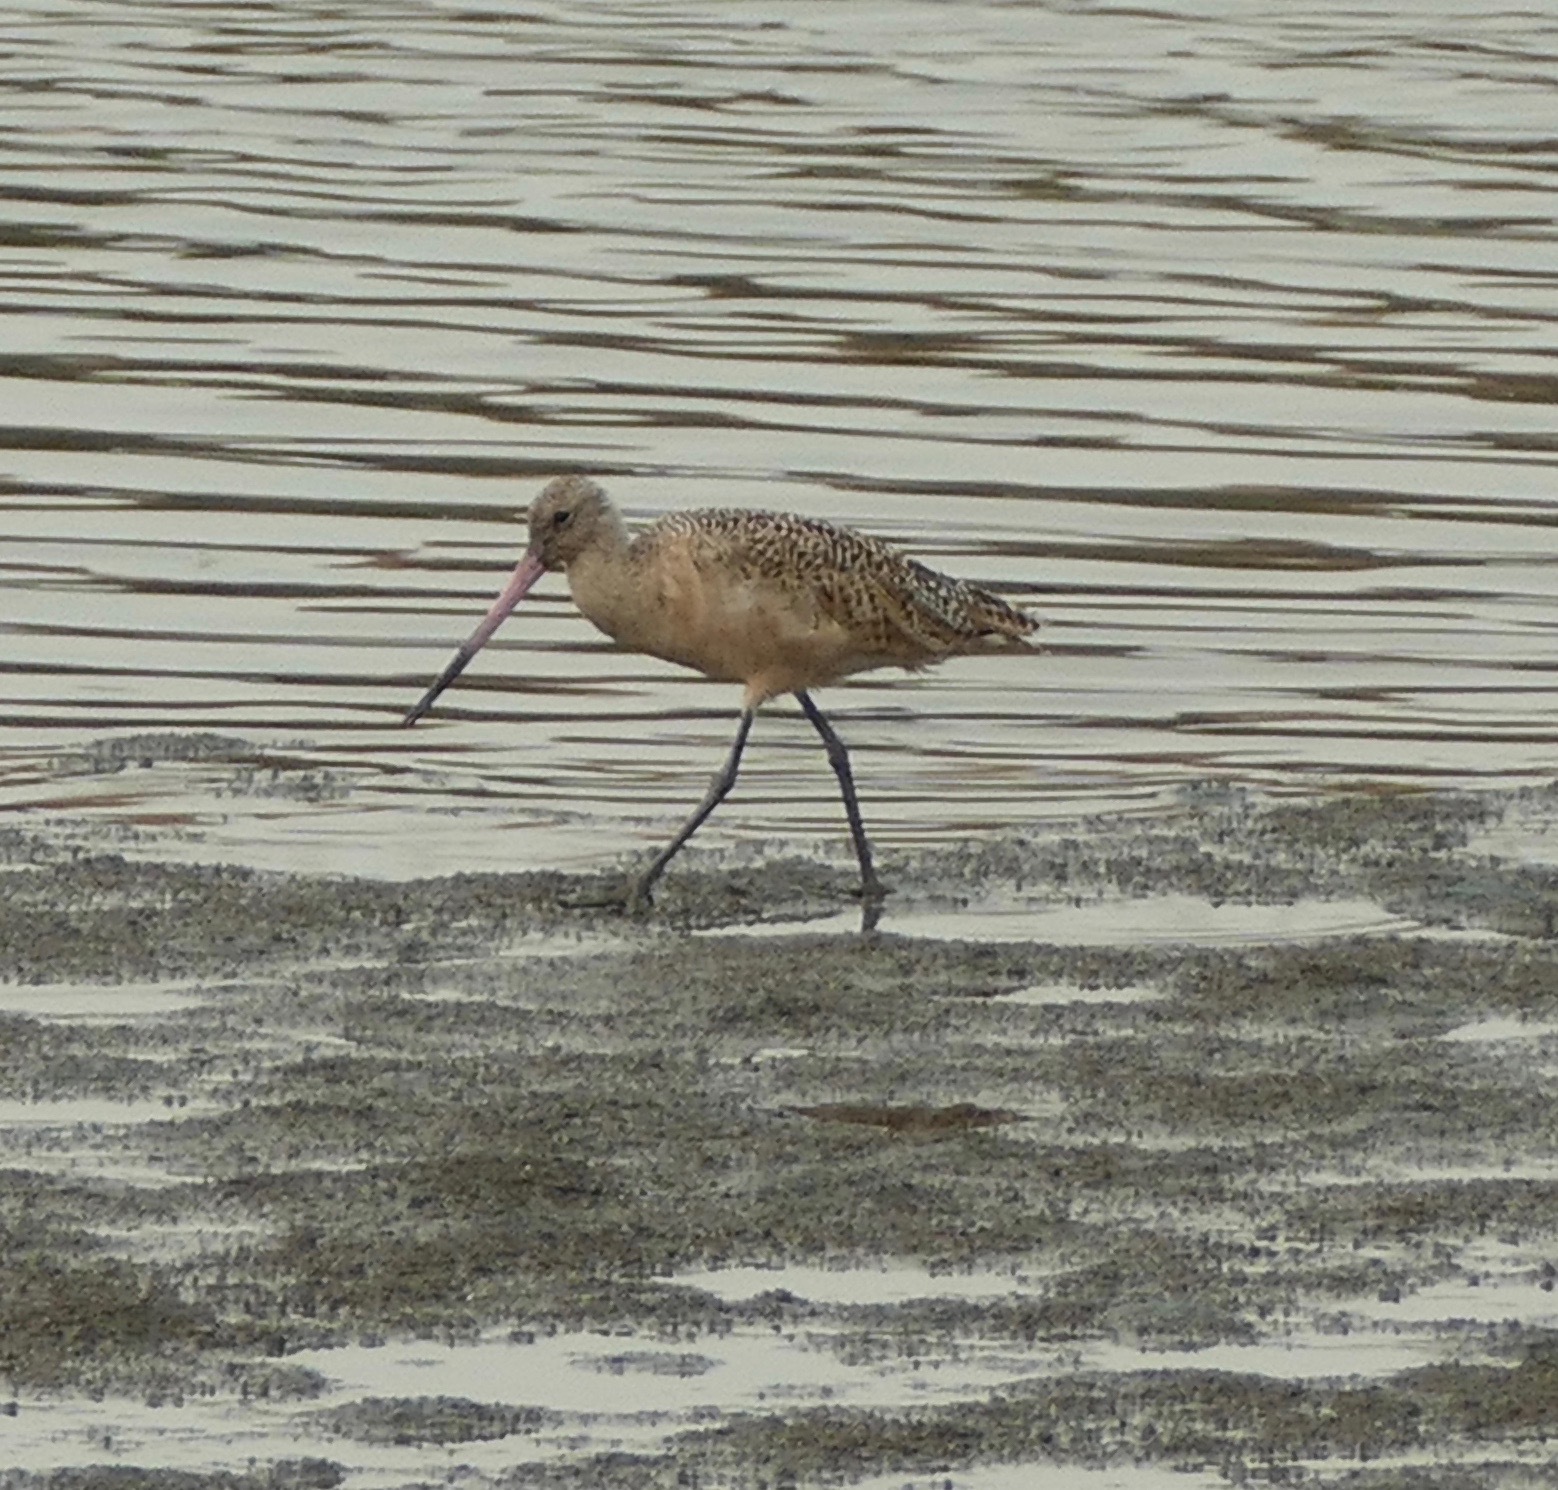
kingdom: Animalia
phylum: Chordata
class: Aves
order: Charadriiformes
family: Scolopacidae
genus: Limosa
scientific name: Limosa fedoa
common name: Marbled godwit
